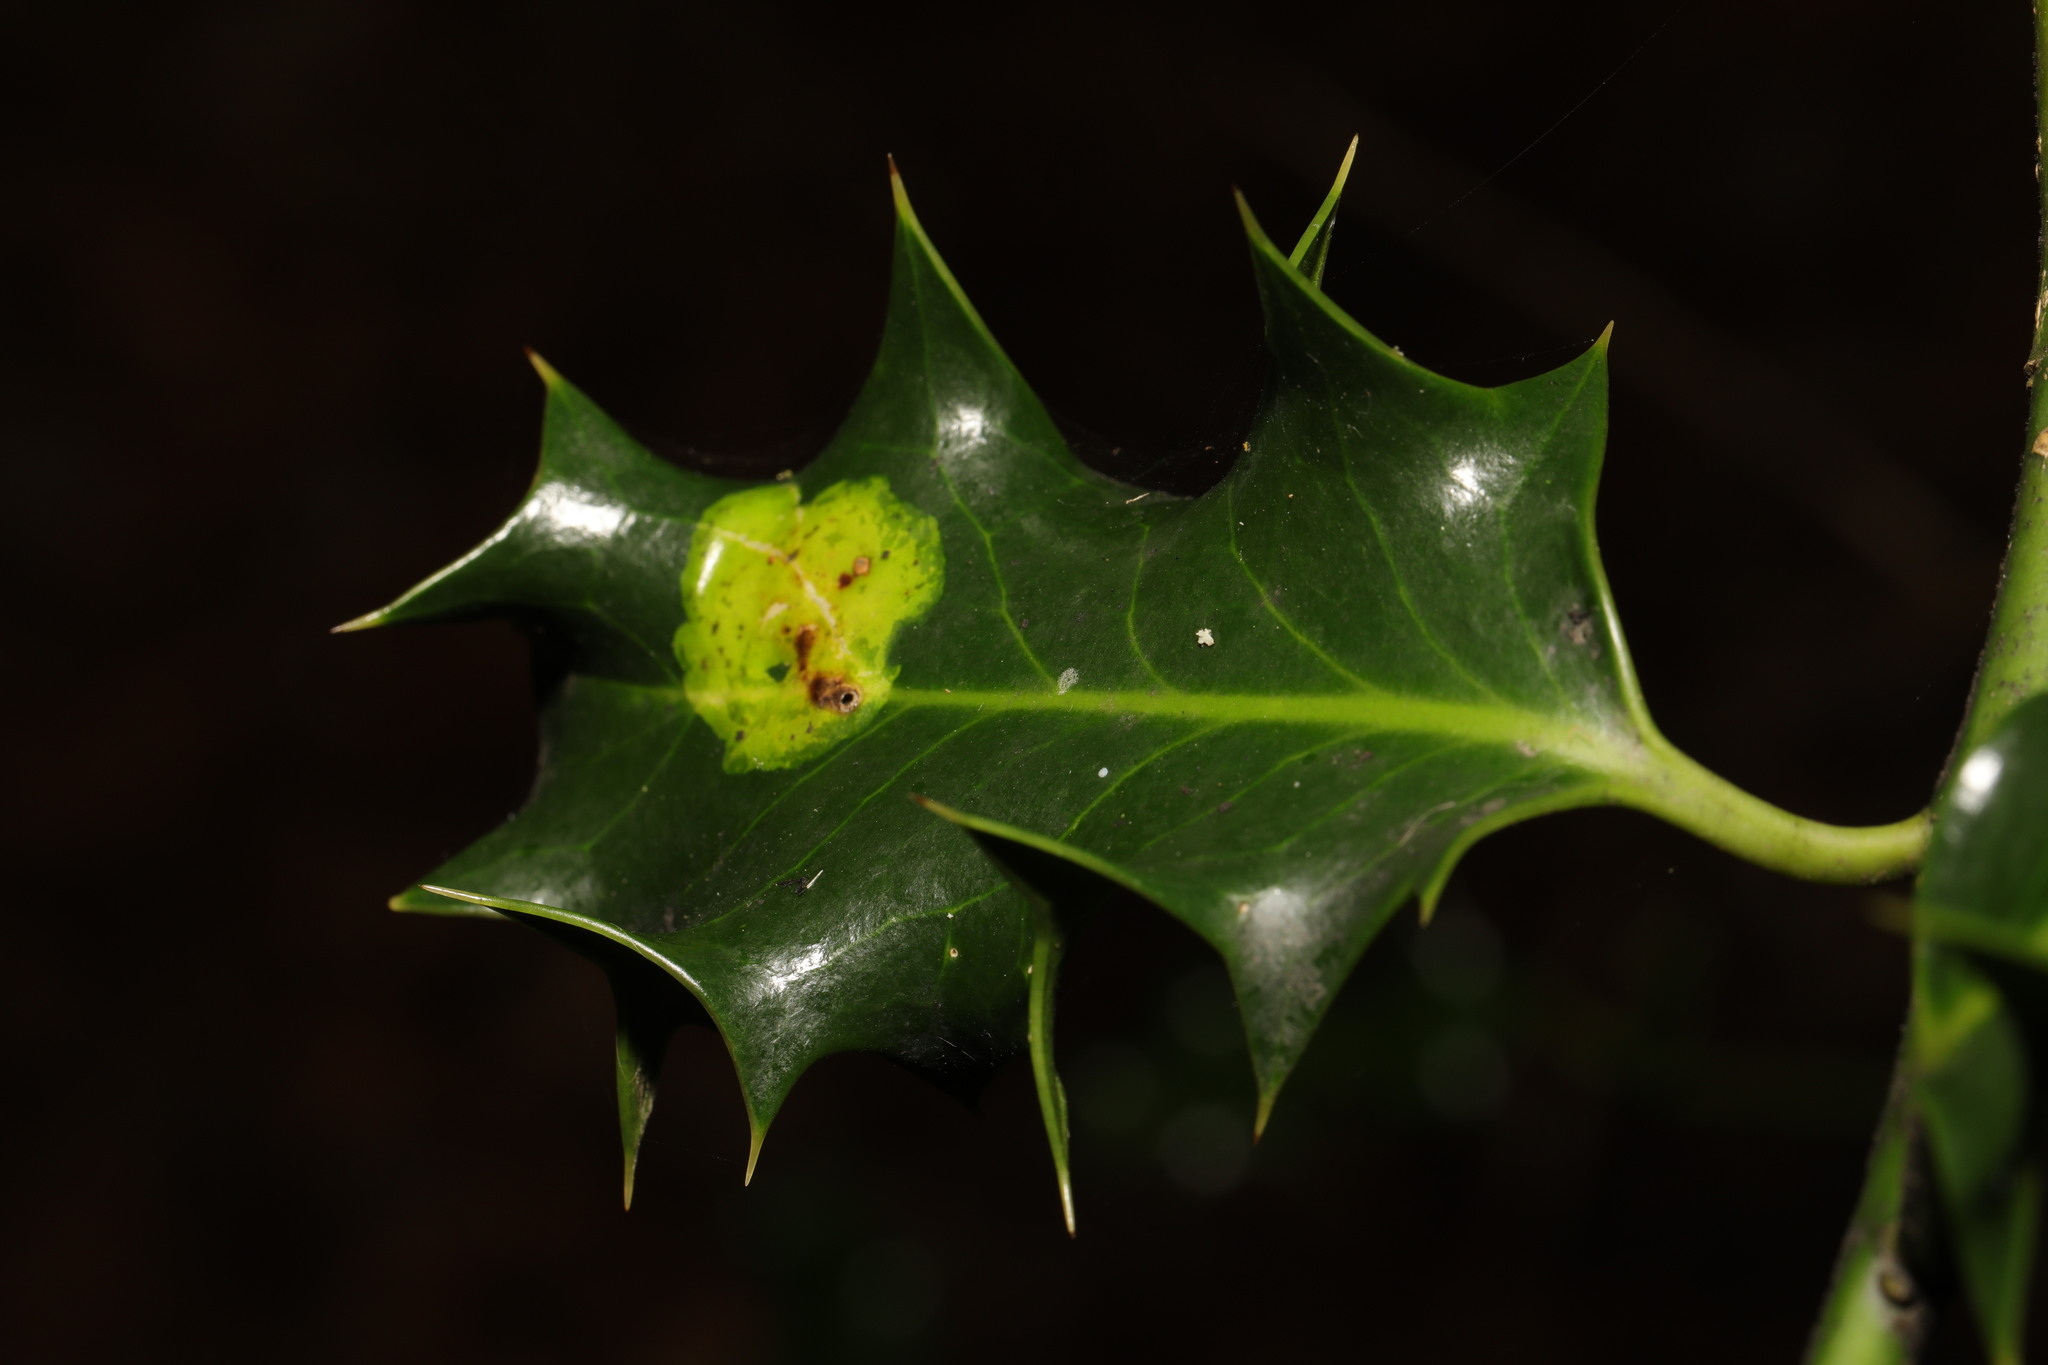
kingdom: Animalia
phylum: Arthropoda
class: Insecta
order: Diptera
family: Agromyzidae
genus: Phytomyza
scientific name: Phytomyza ilicis
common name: Holly leafminer
